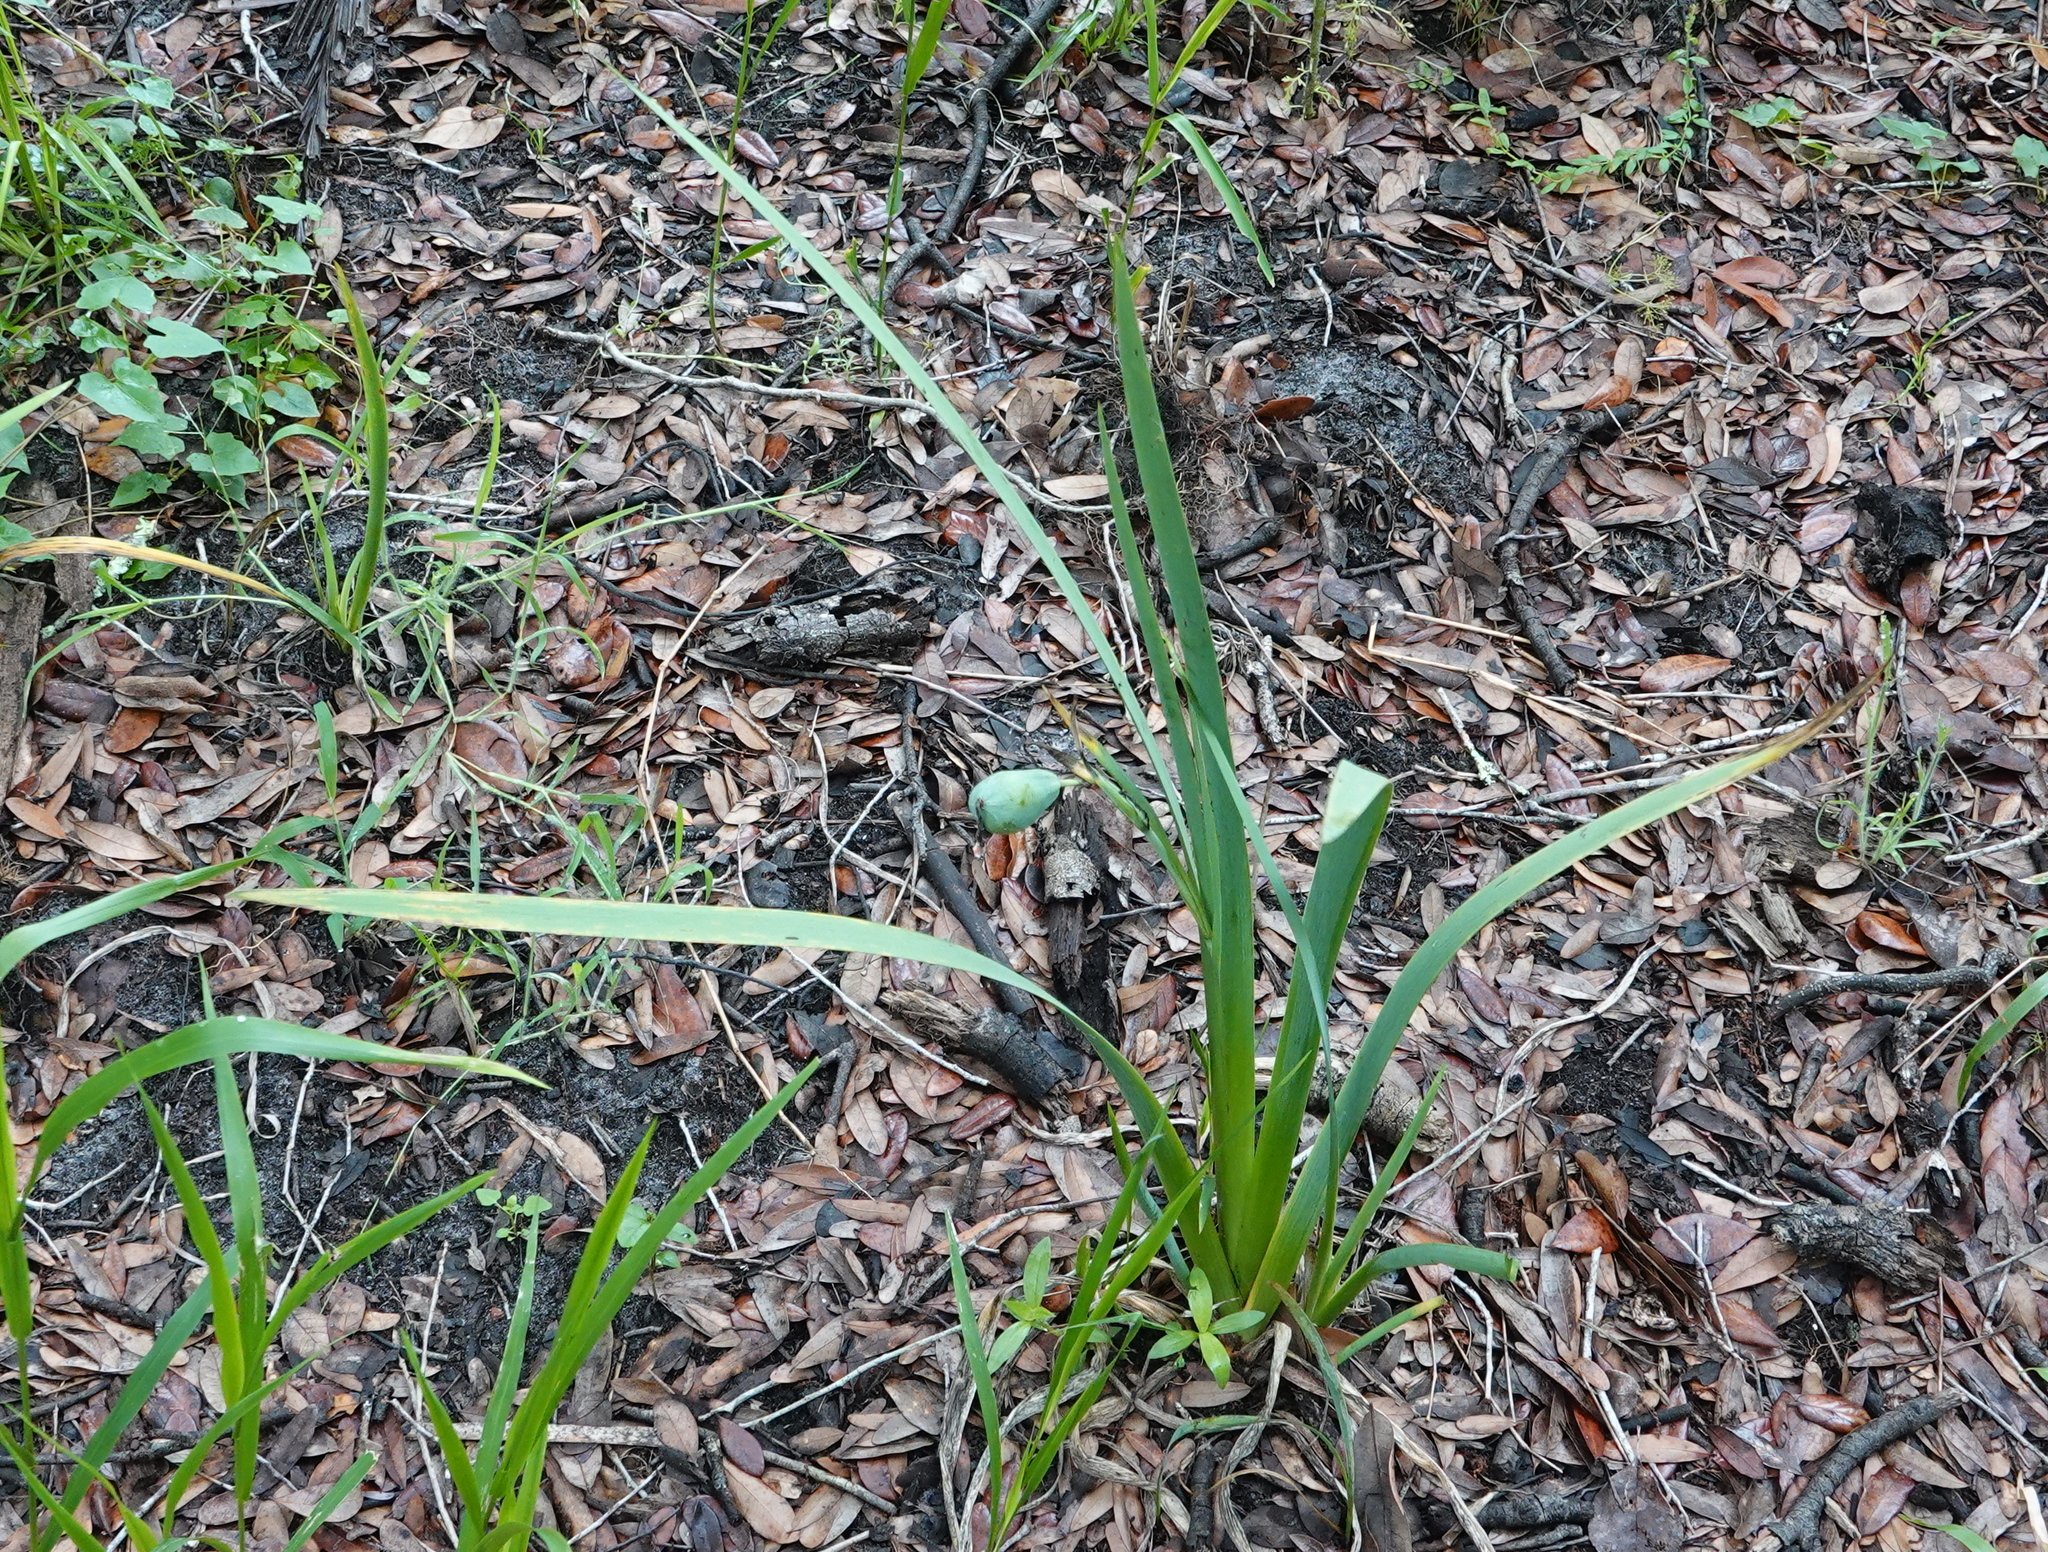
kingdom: Plantae
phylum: Tracheophyta
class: Liliopsida
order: Asparagales
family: Iridaceae
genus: Iris
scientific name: Iris savannarum
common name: Prairie iris
